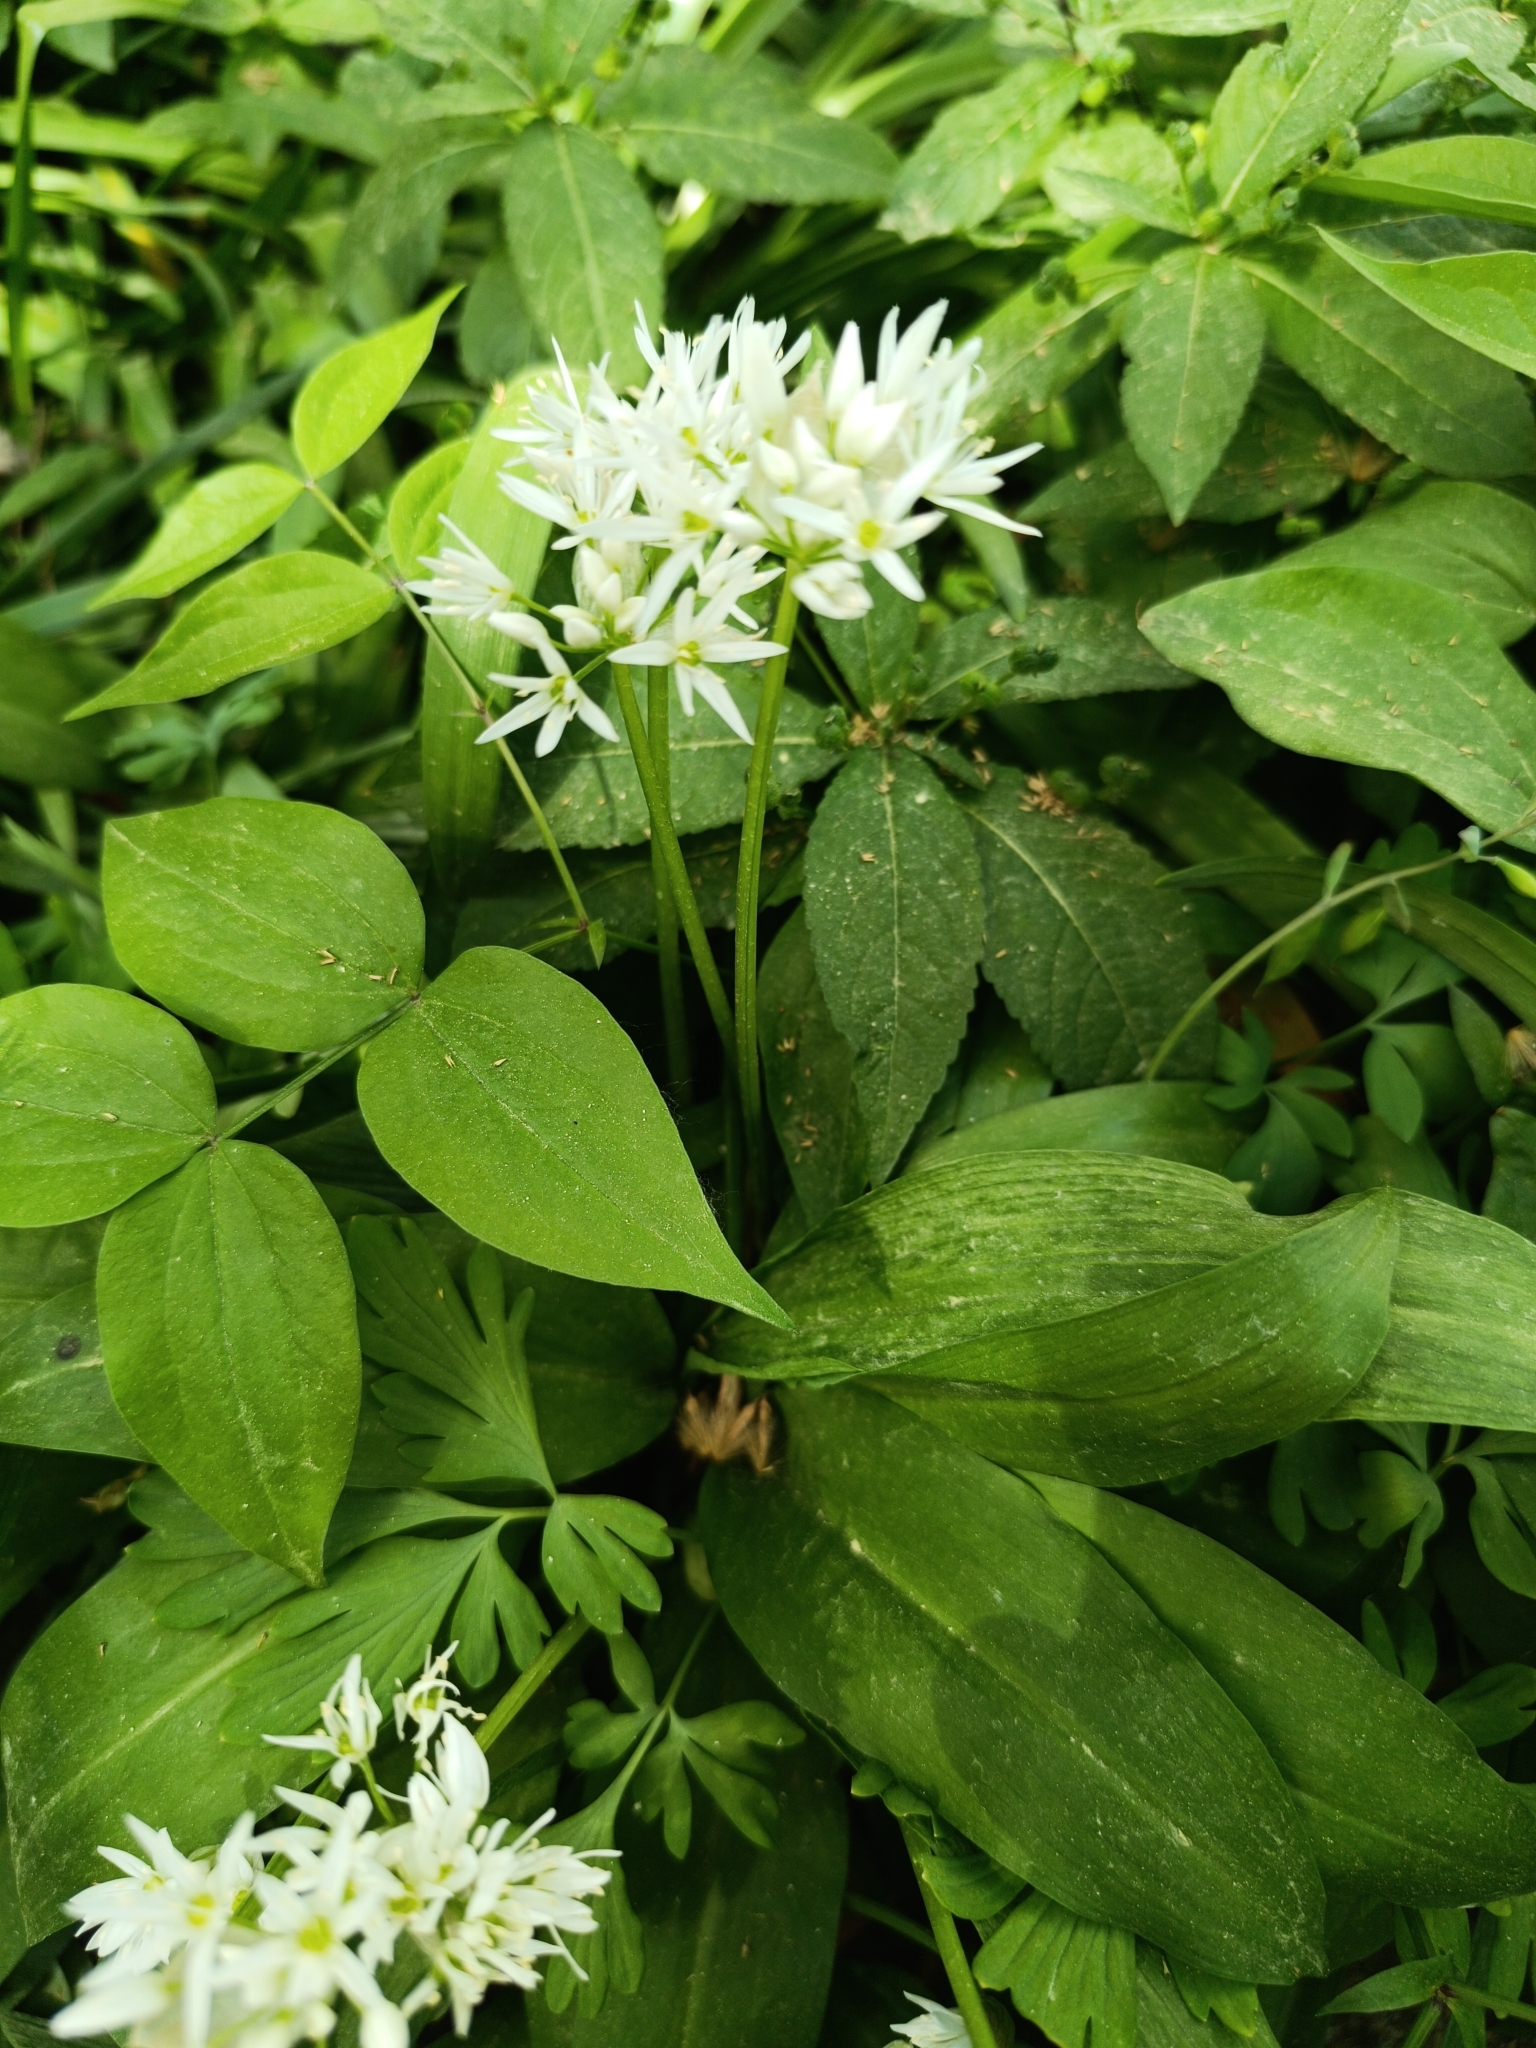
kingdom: Plantae
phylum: Tracheophyta
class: Liliopsida
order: Asparagales
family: Amaryllidaceae
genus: Allium
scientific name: Allium ursinum
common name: Ramsons
